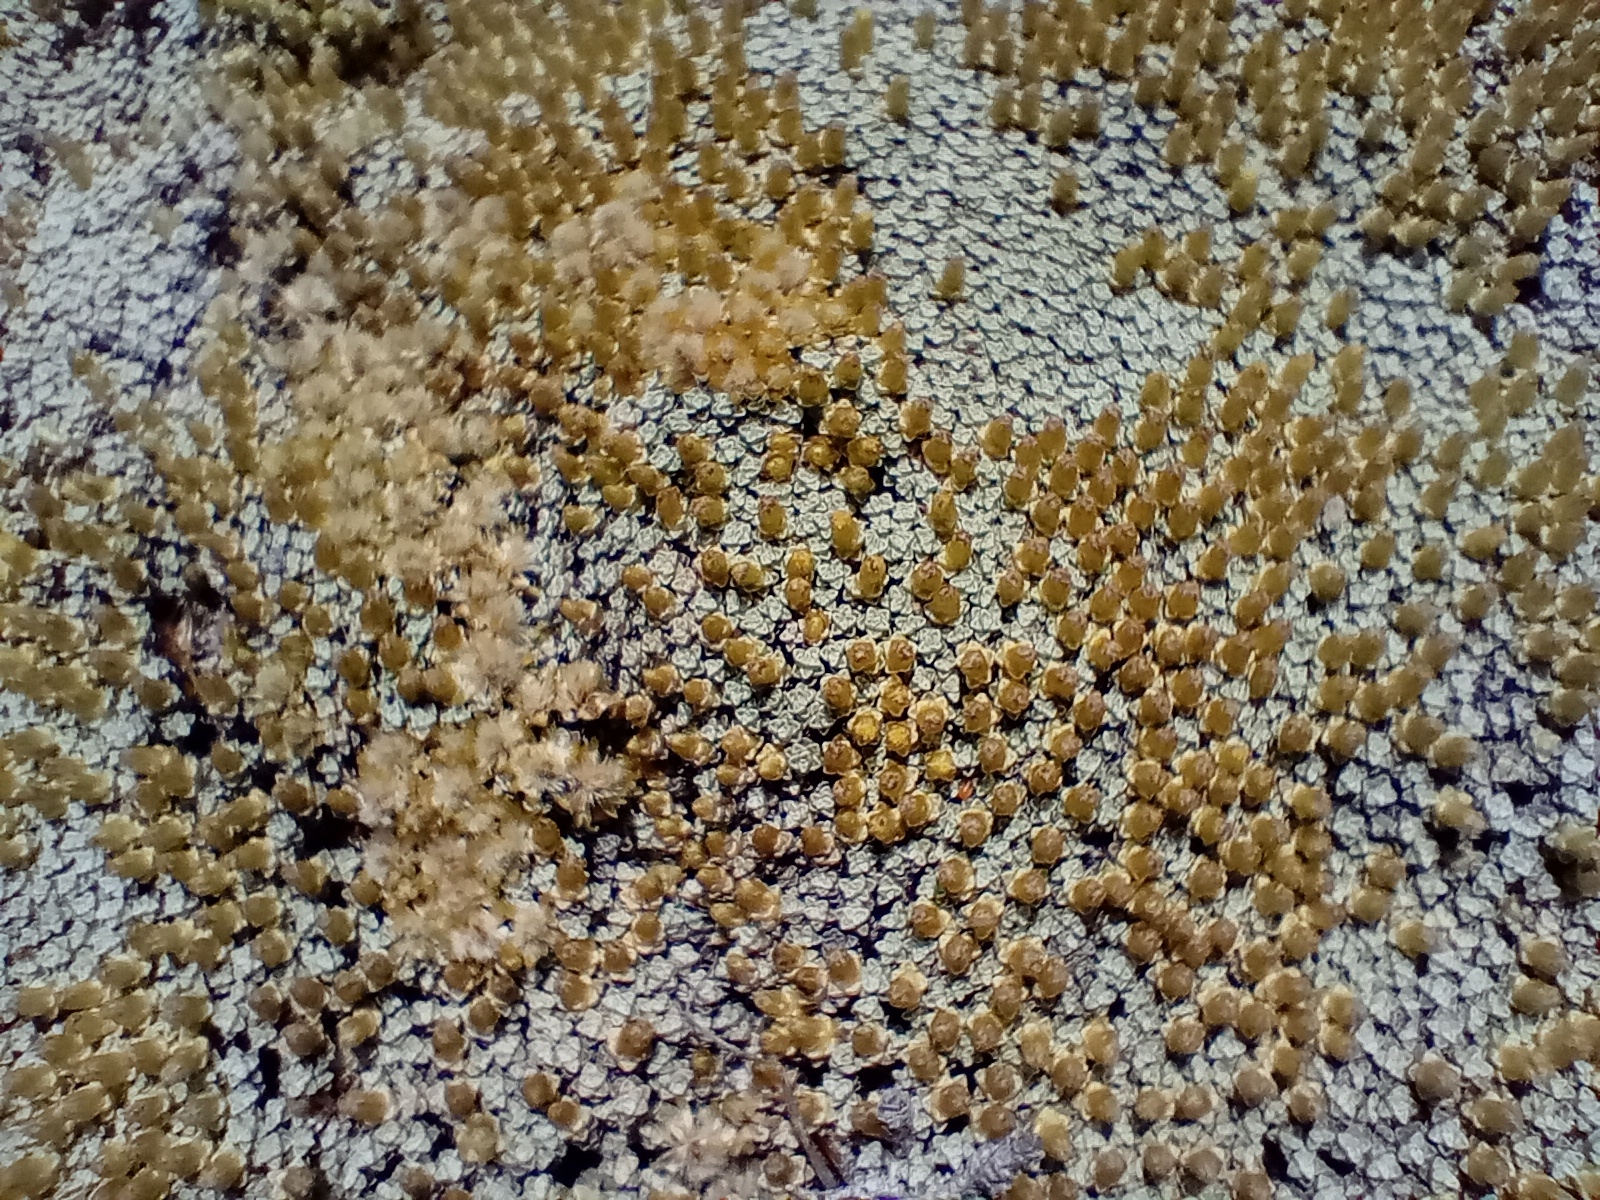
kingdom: Plantae
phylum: Tracheophyta
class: Magnoliopsida
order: Asterales
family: Asteraceae
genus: Raoulia
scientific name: Raoulia australis
